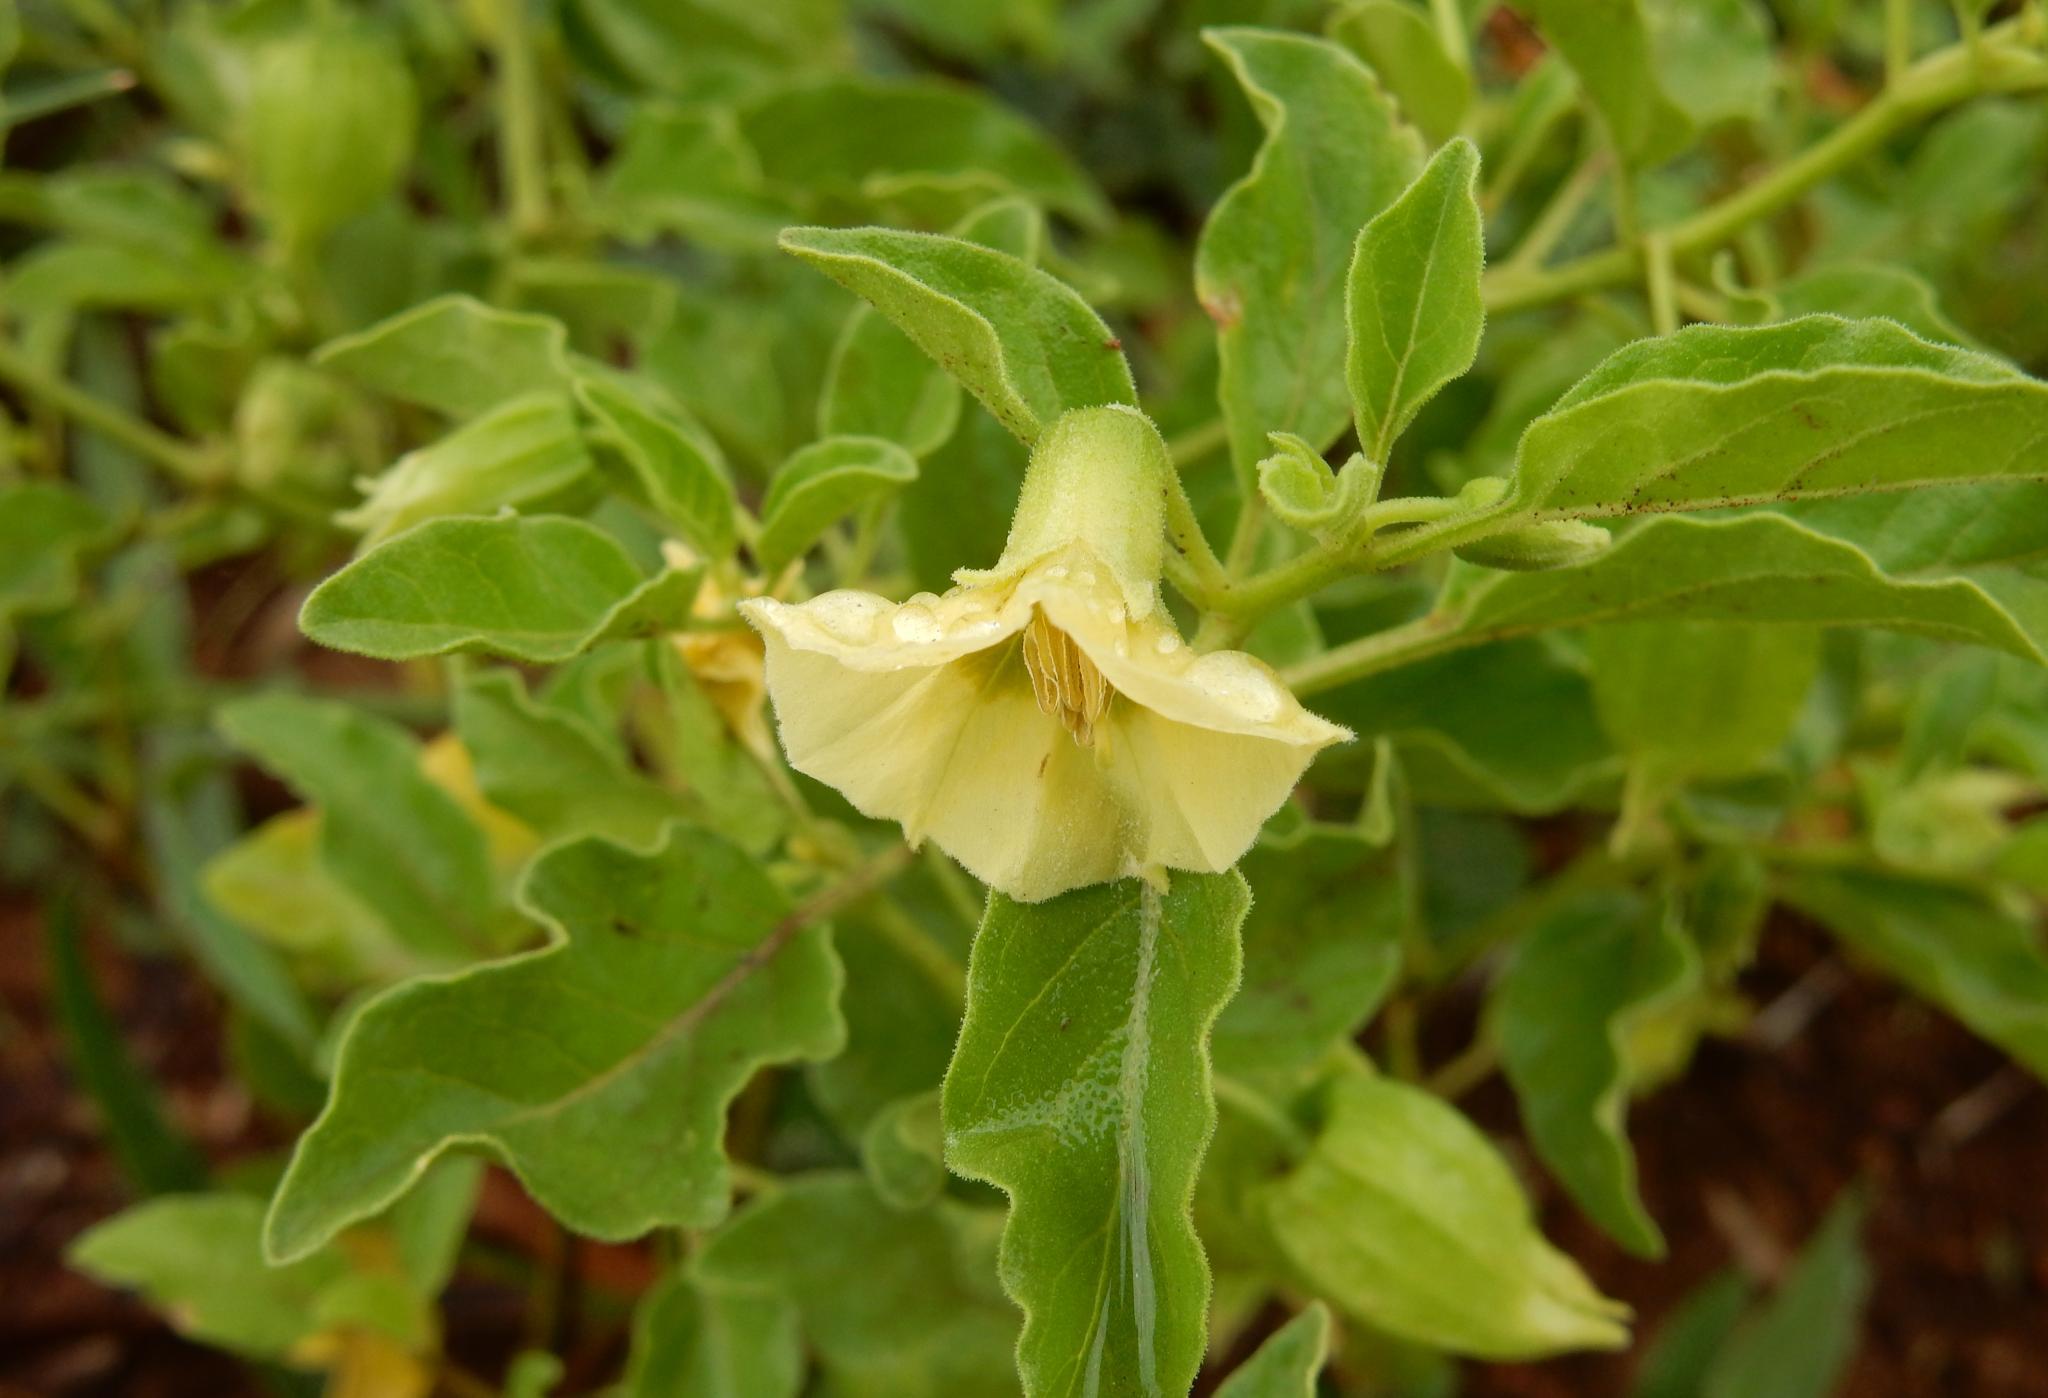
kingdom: Plantae
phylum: Tracheophyta
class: Magnoliopsida
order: Solanales
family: Solanaceae
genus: Physalis
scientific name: Physalis viscosa
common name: Stellate ground-cherry
